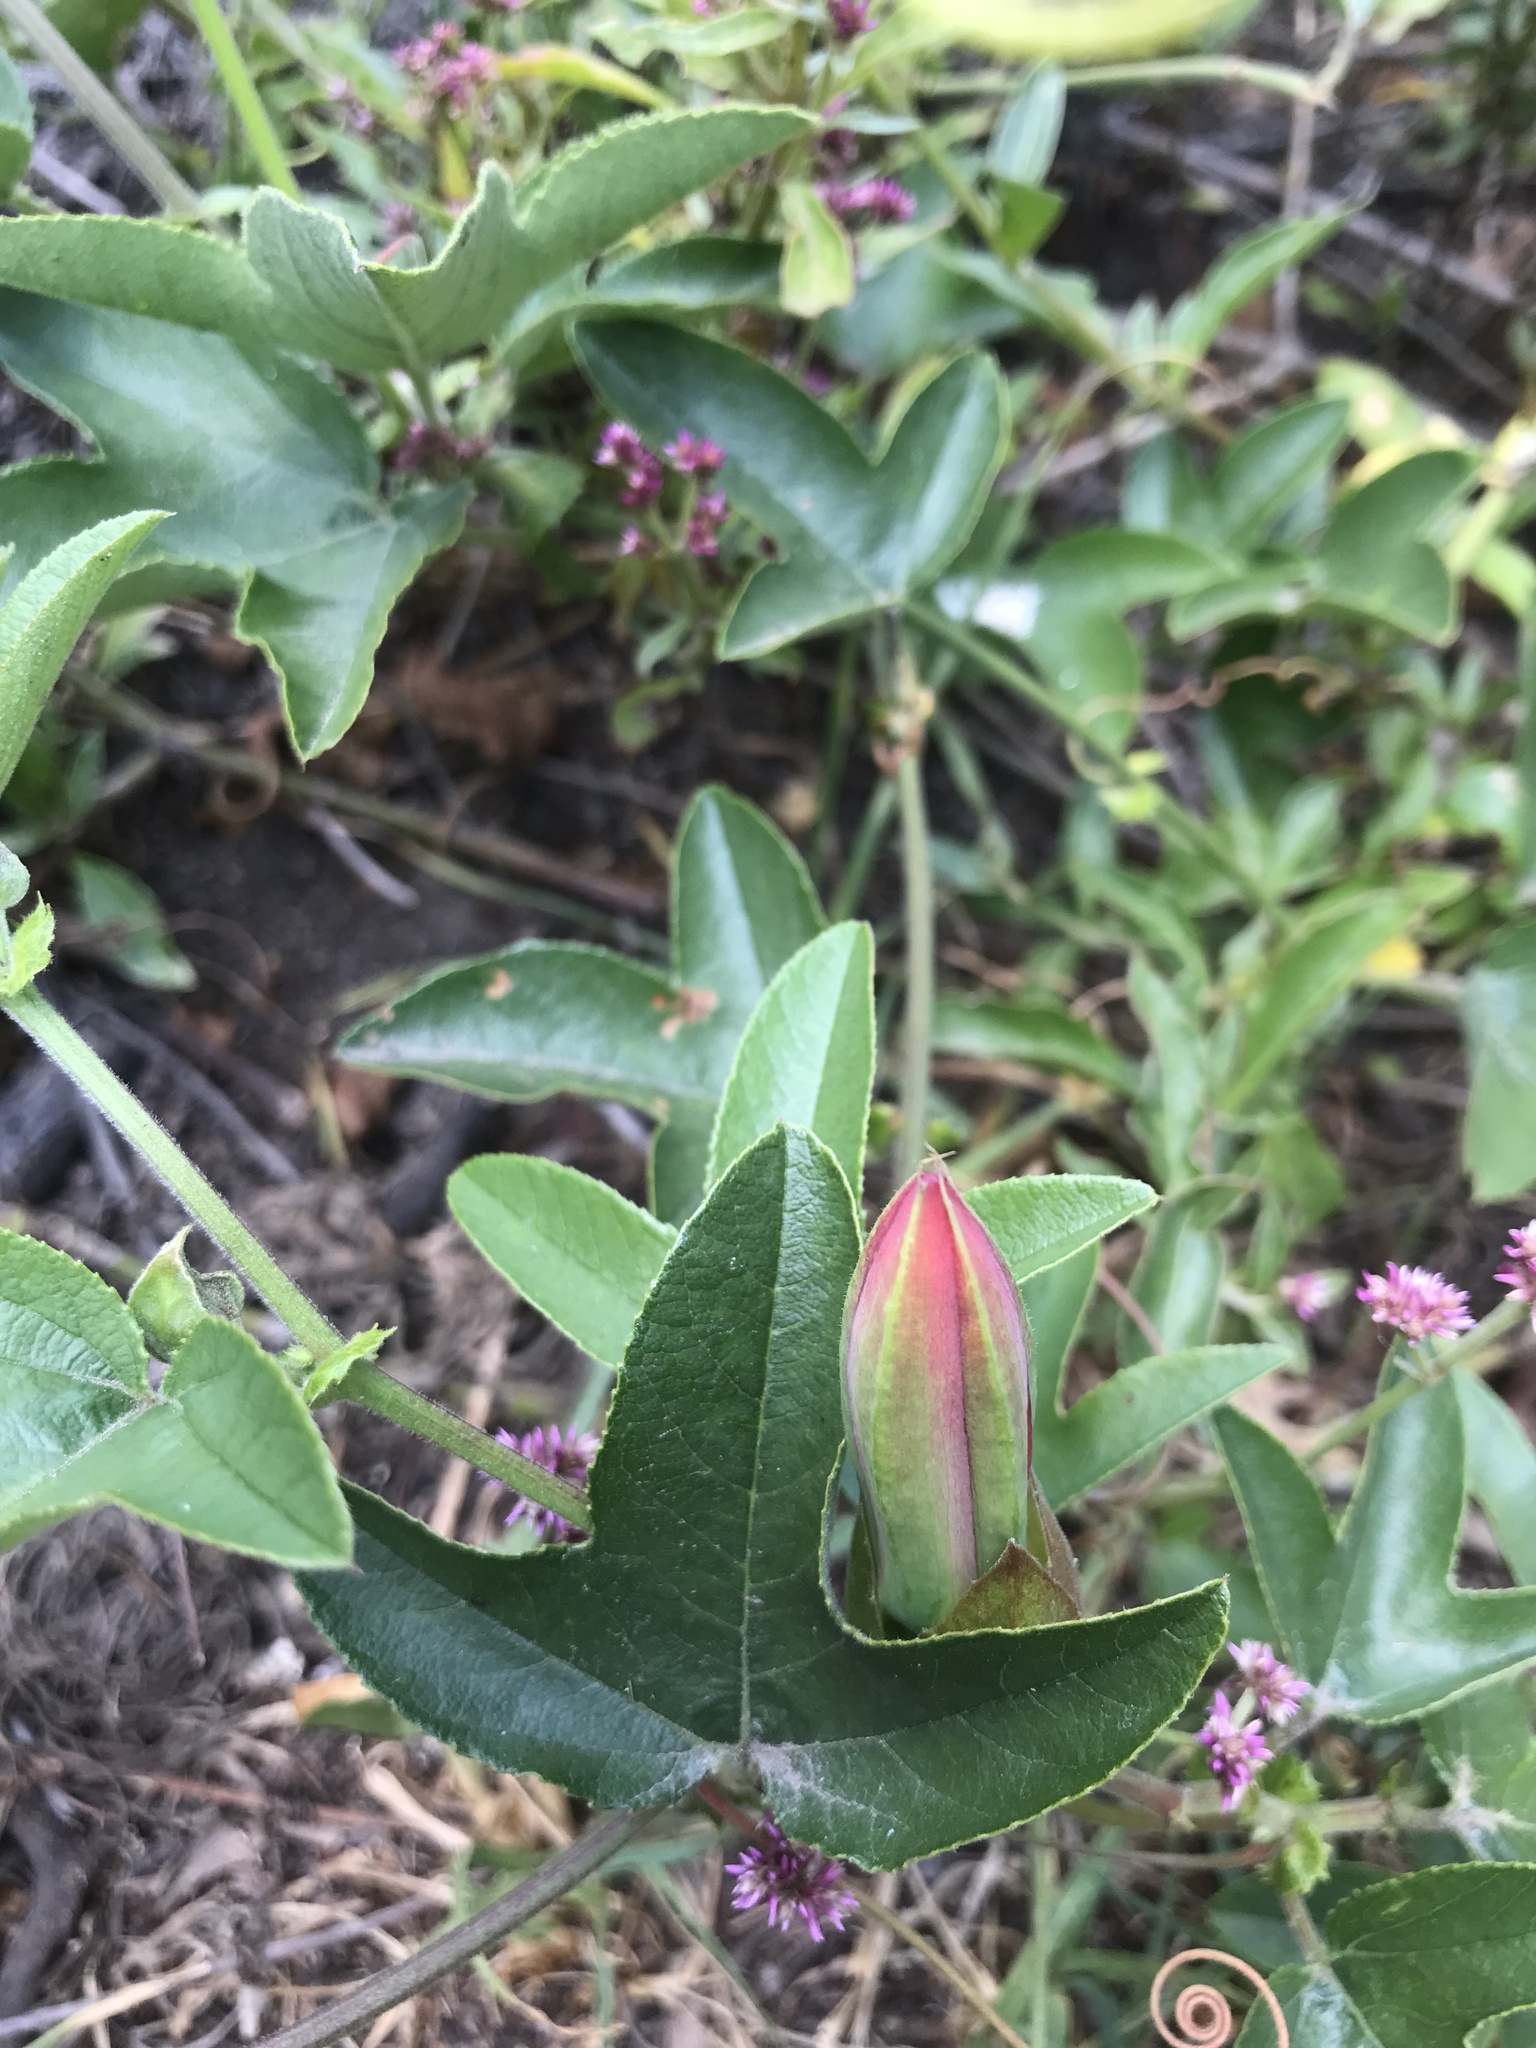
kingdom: Plantae
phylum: Tracheophyta
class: Magnoliopsida
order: Malpighiales
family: Passifloraceae
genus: Passiflora
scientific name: Passiflora manicata
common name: Red passionflower
